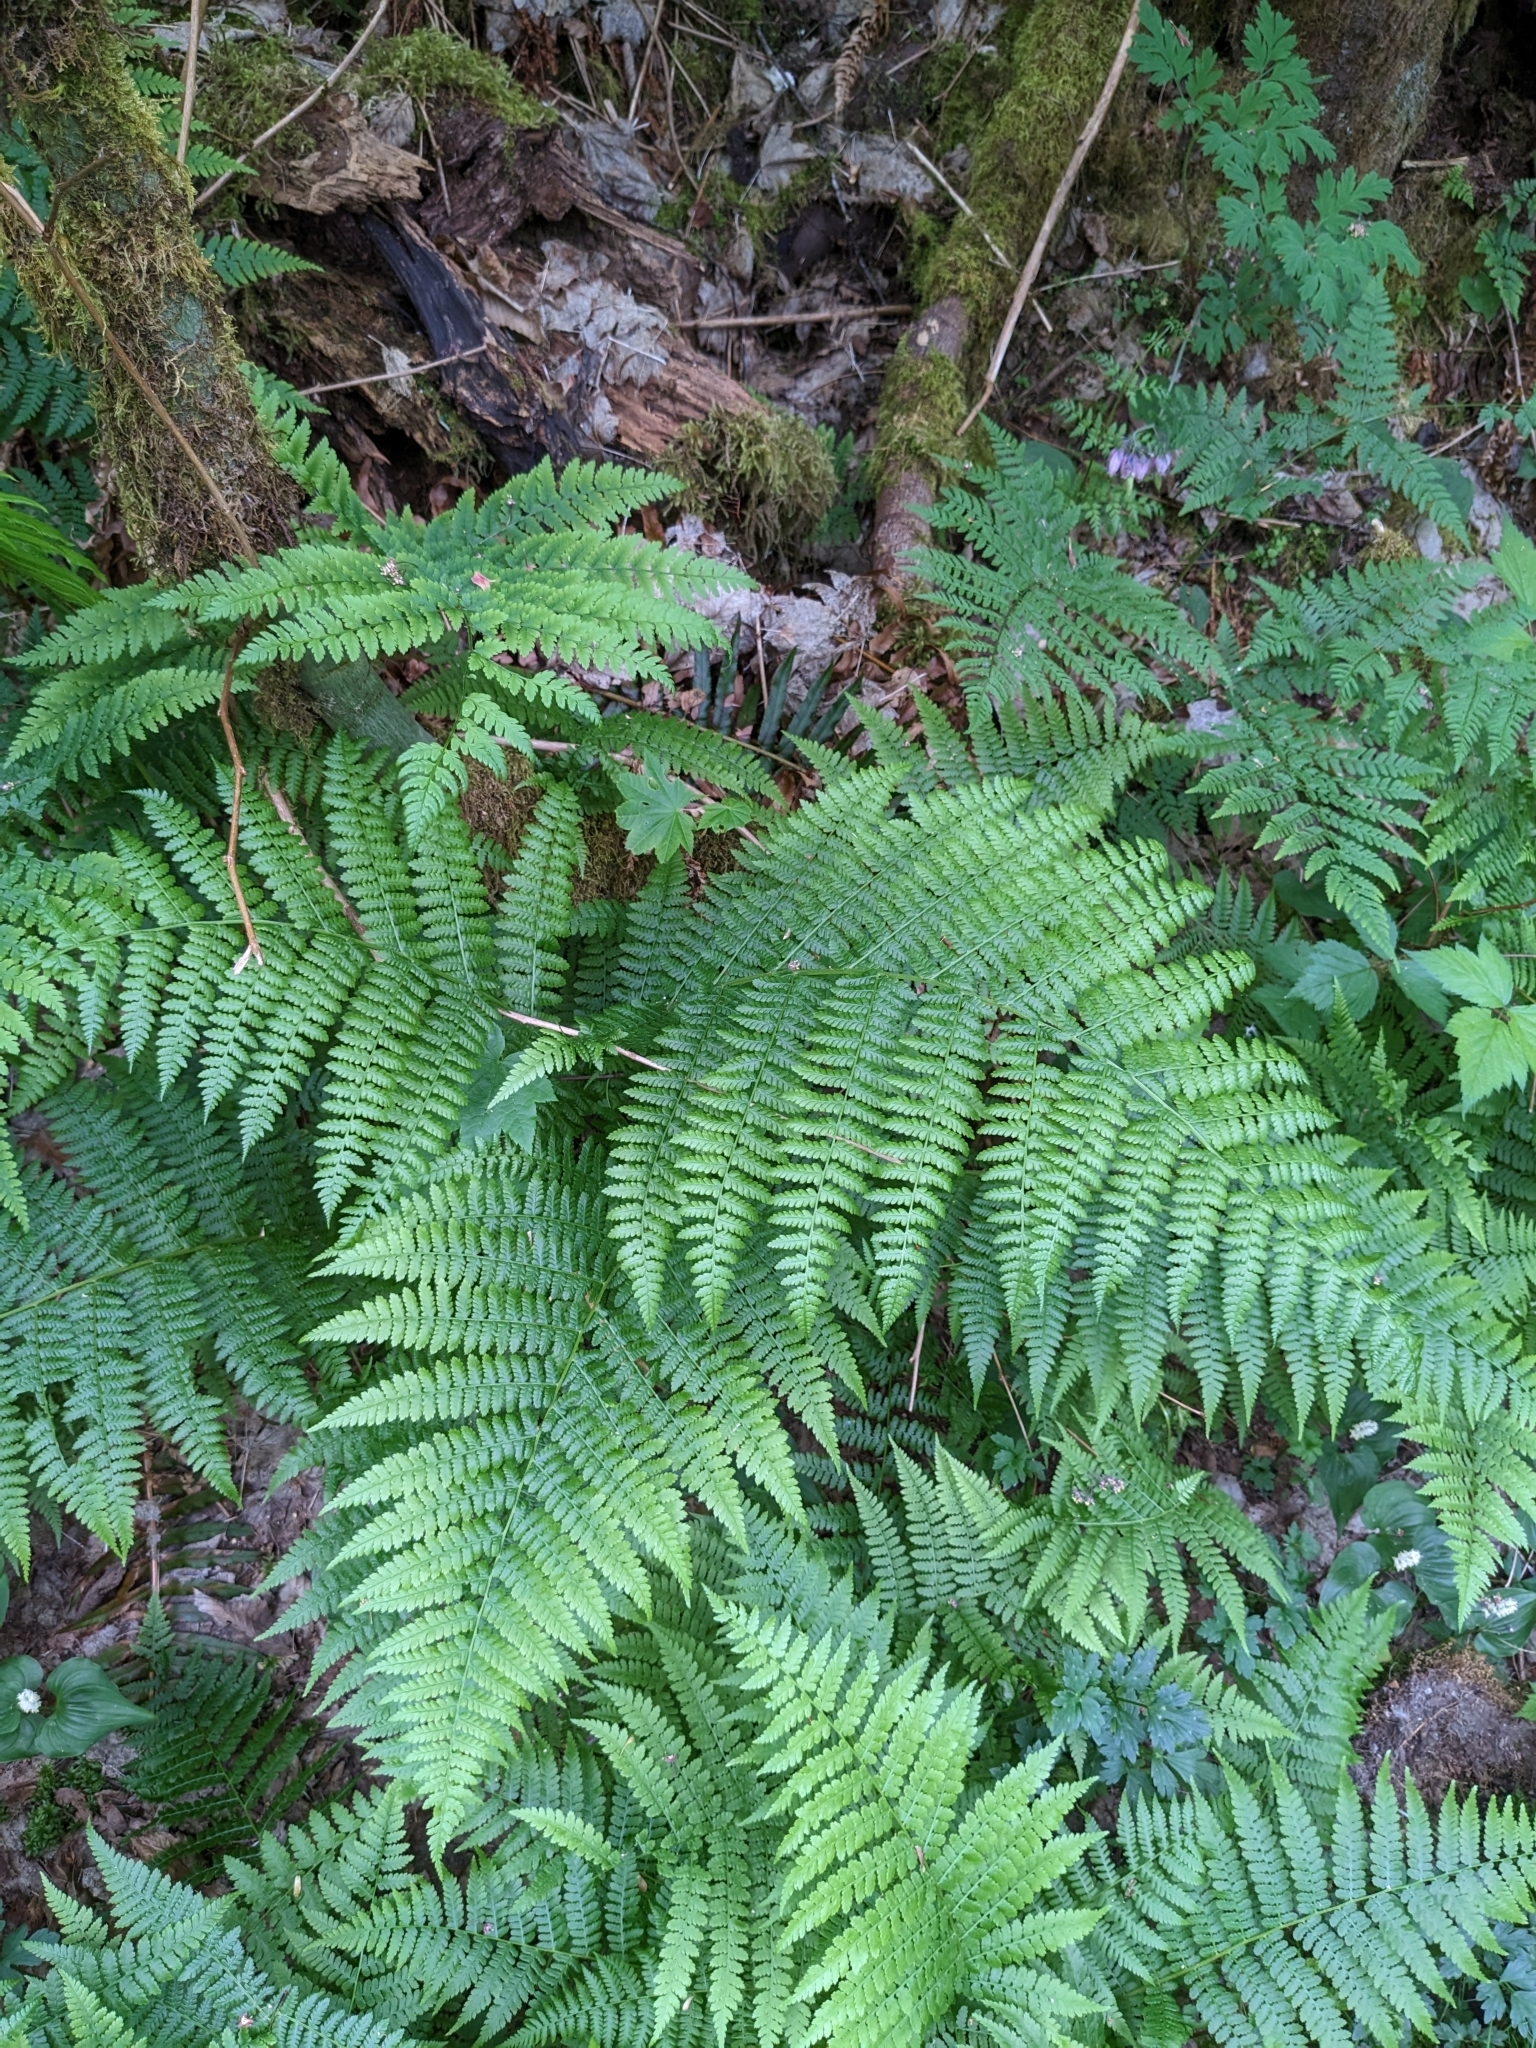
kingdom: Plantae
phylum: Tracheophyta
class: Polypodiopsida
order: Polypodiales
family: Athyriaceae
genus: Athyrium
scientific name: Athyrium filix-femina
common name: Lady fern
